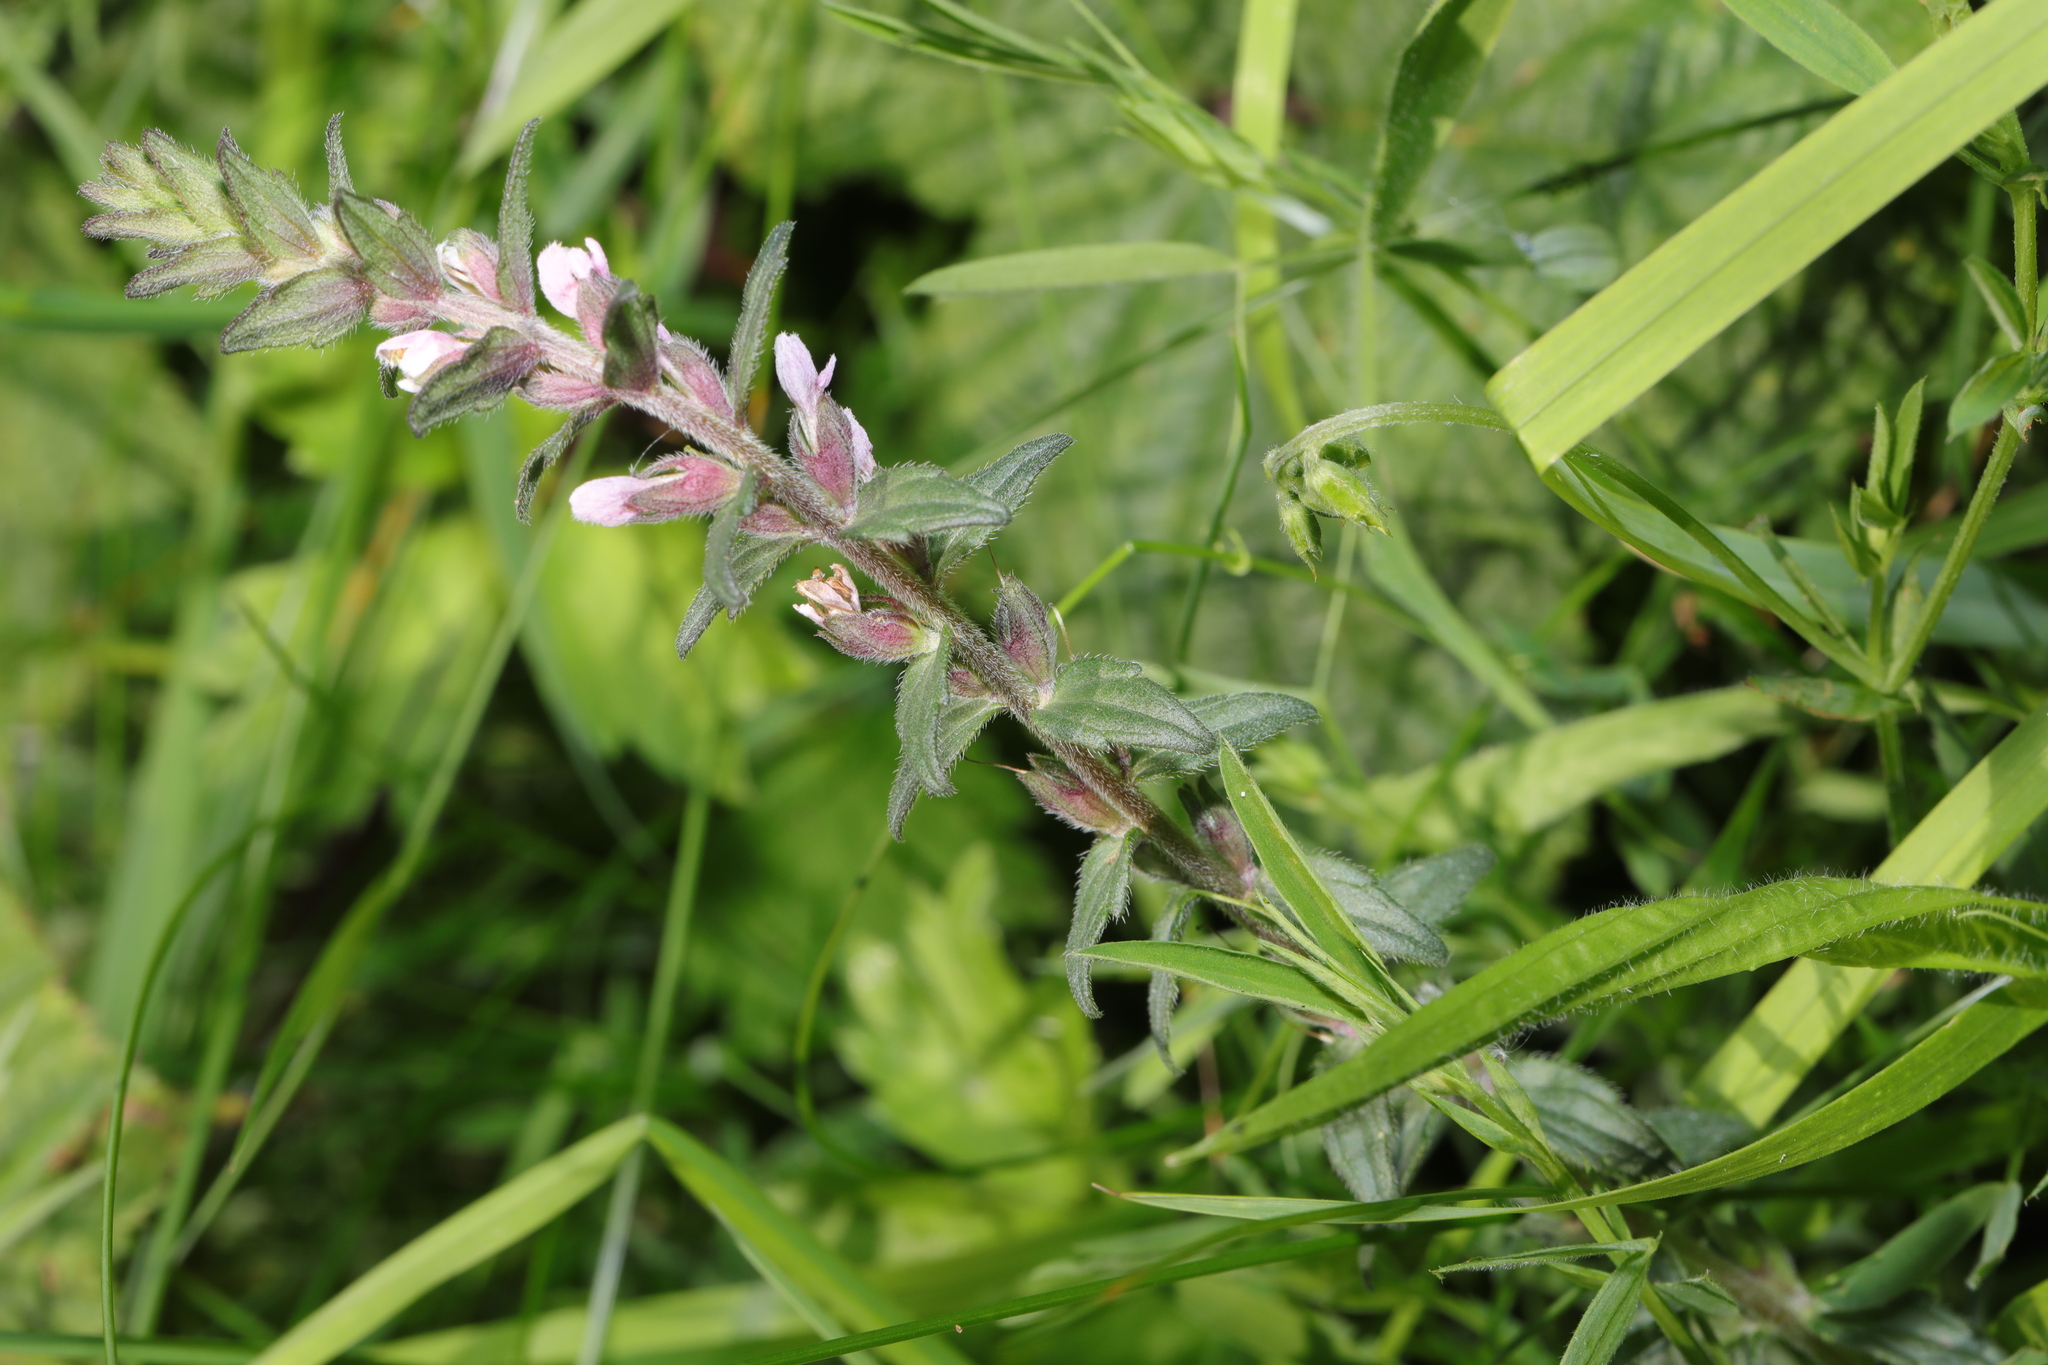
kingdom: Plantae
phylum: Tracheophyta
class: Magnoliopsida
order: Lamiales
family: Orobanchaceae
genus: Odontites
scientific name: Odontites vernus
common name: Red bartsia
